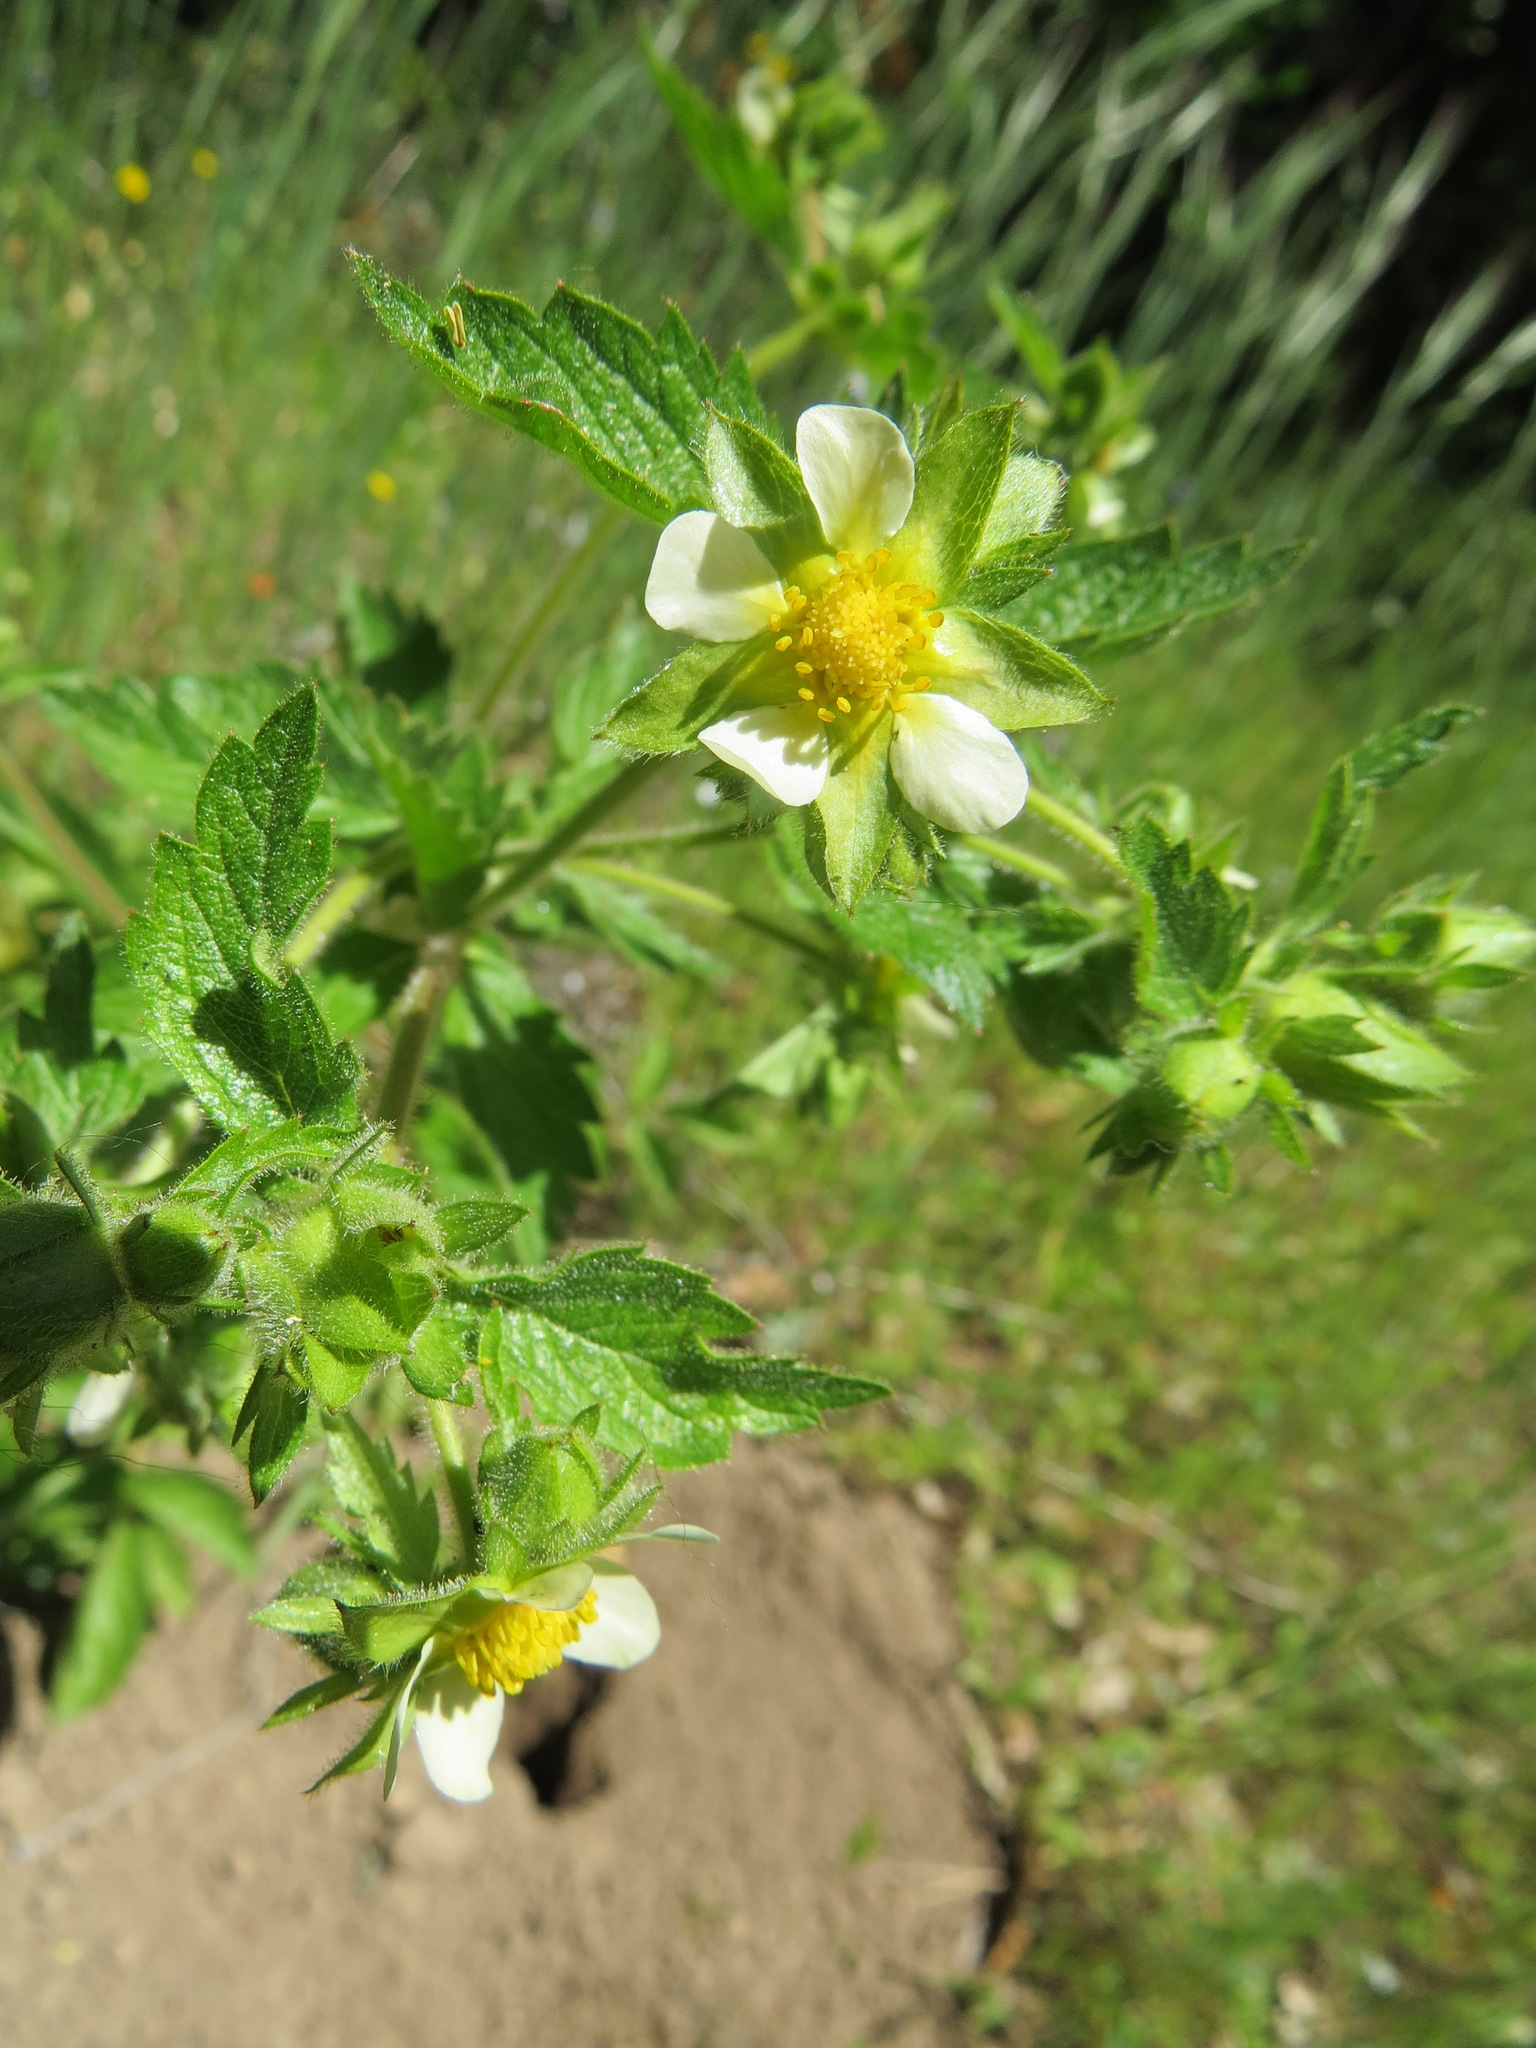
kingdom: Plantae
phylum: Tracheophyta
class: Magnoliopsida
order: Rosales
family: Rosaceae
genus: Drymocallis
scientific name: Drymocallis glandulosa
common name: Sticky cinquefoil
